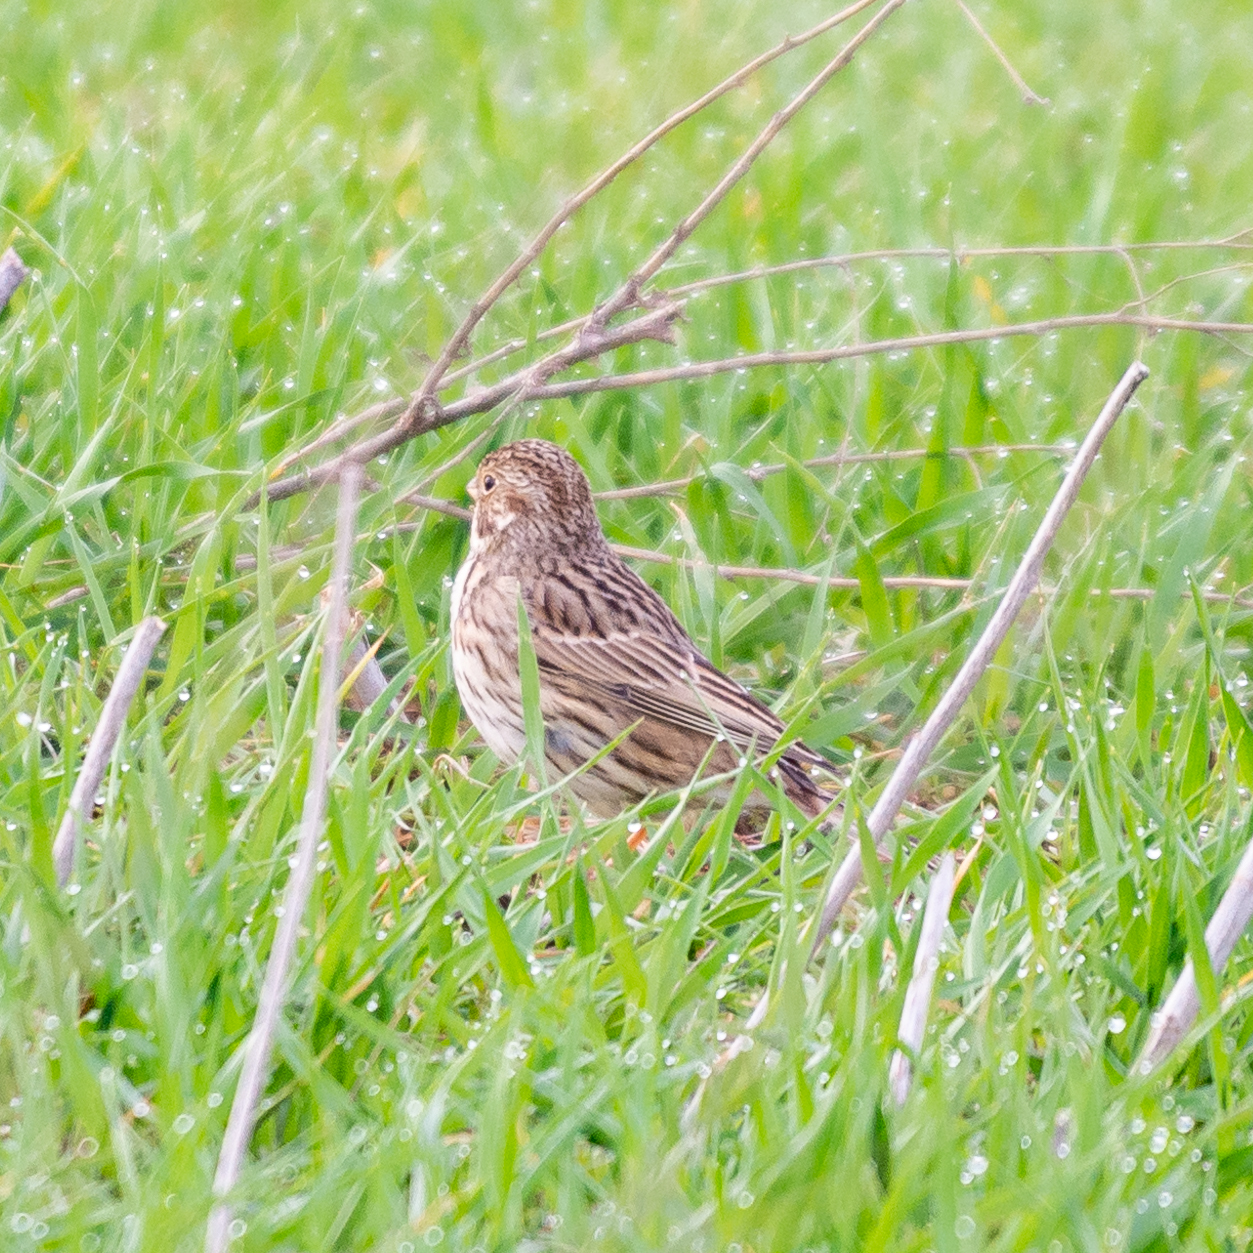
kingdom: Animalia
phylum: Chordata
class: Aves
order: Passeriformes
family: Emberizidae
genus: Emberiza
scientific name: Emberiza calandra
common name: Corn bunting
